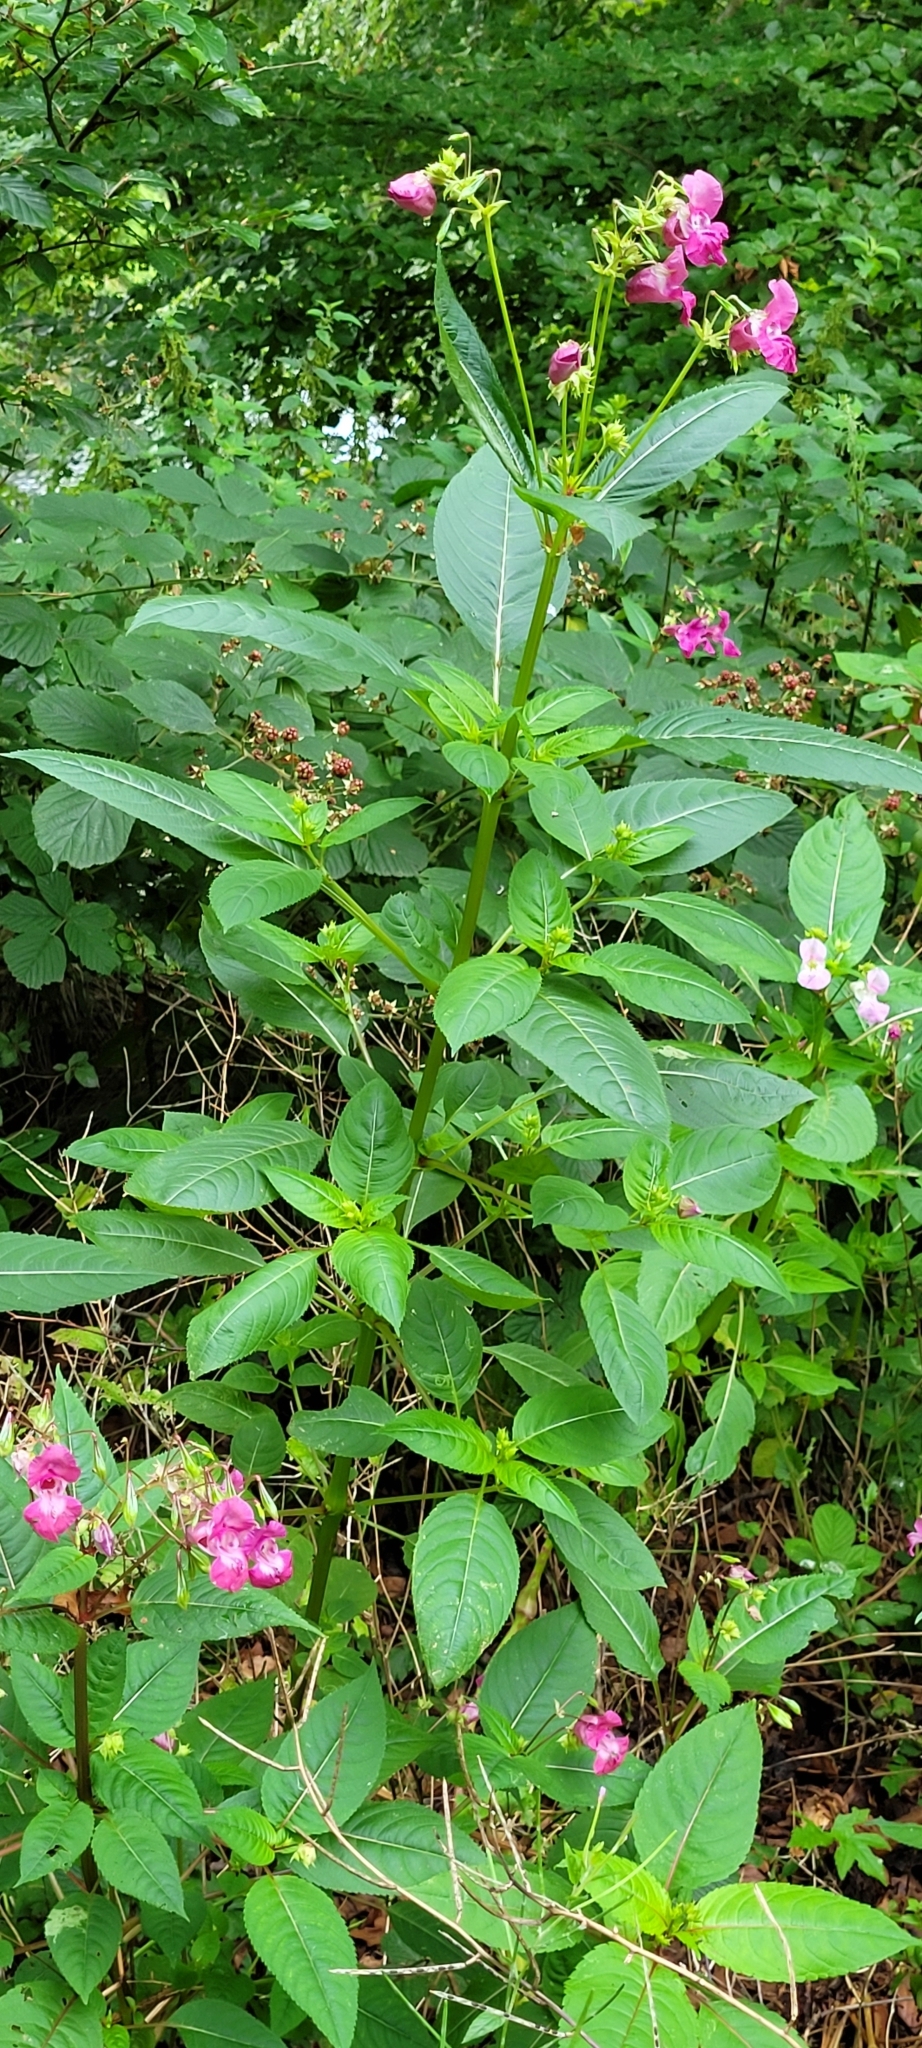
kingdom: Plantae
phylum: Tracheophyta
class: Magnoliopsida
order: Ericales
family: Balsaminaceae
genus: Impatiens
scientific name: Impatiens glandulifera
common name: Himalayan balsam
